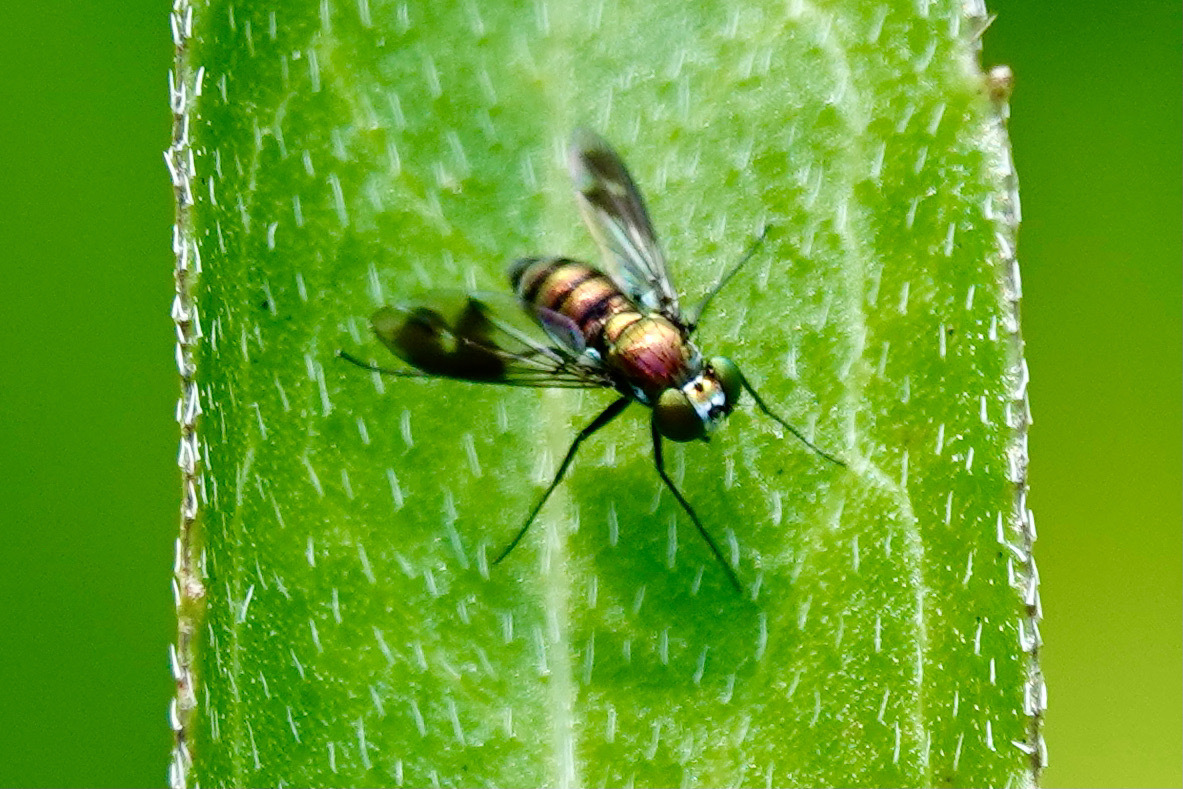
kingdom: Animalia
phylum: Arthropoda
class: Insecta
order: Diptera
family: Dolichopodidae
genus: Condylostylus
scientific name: Condylostylus patibulatus
